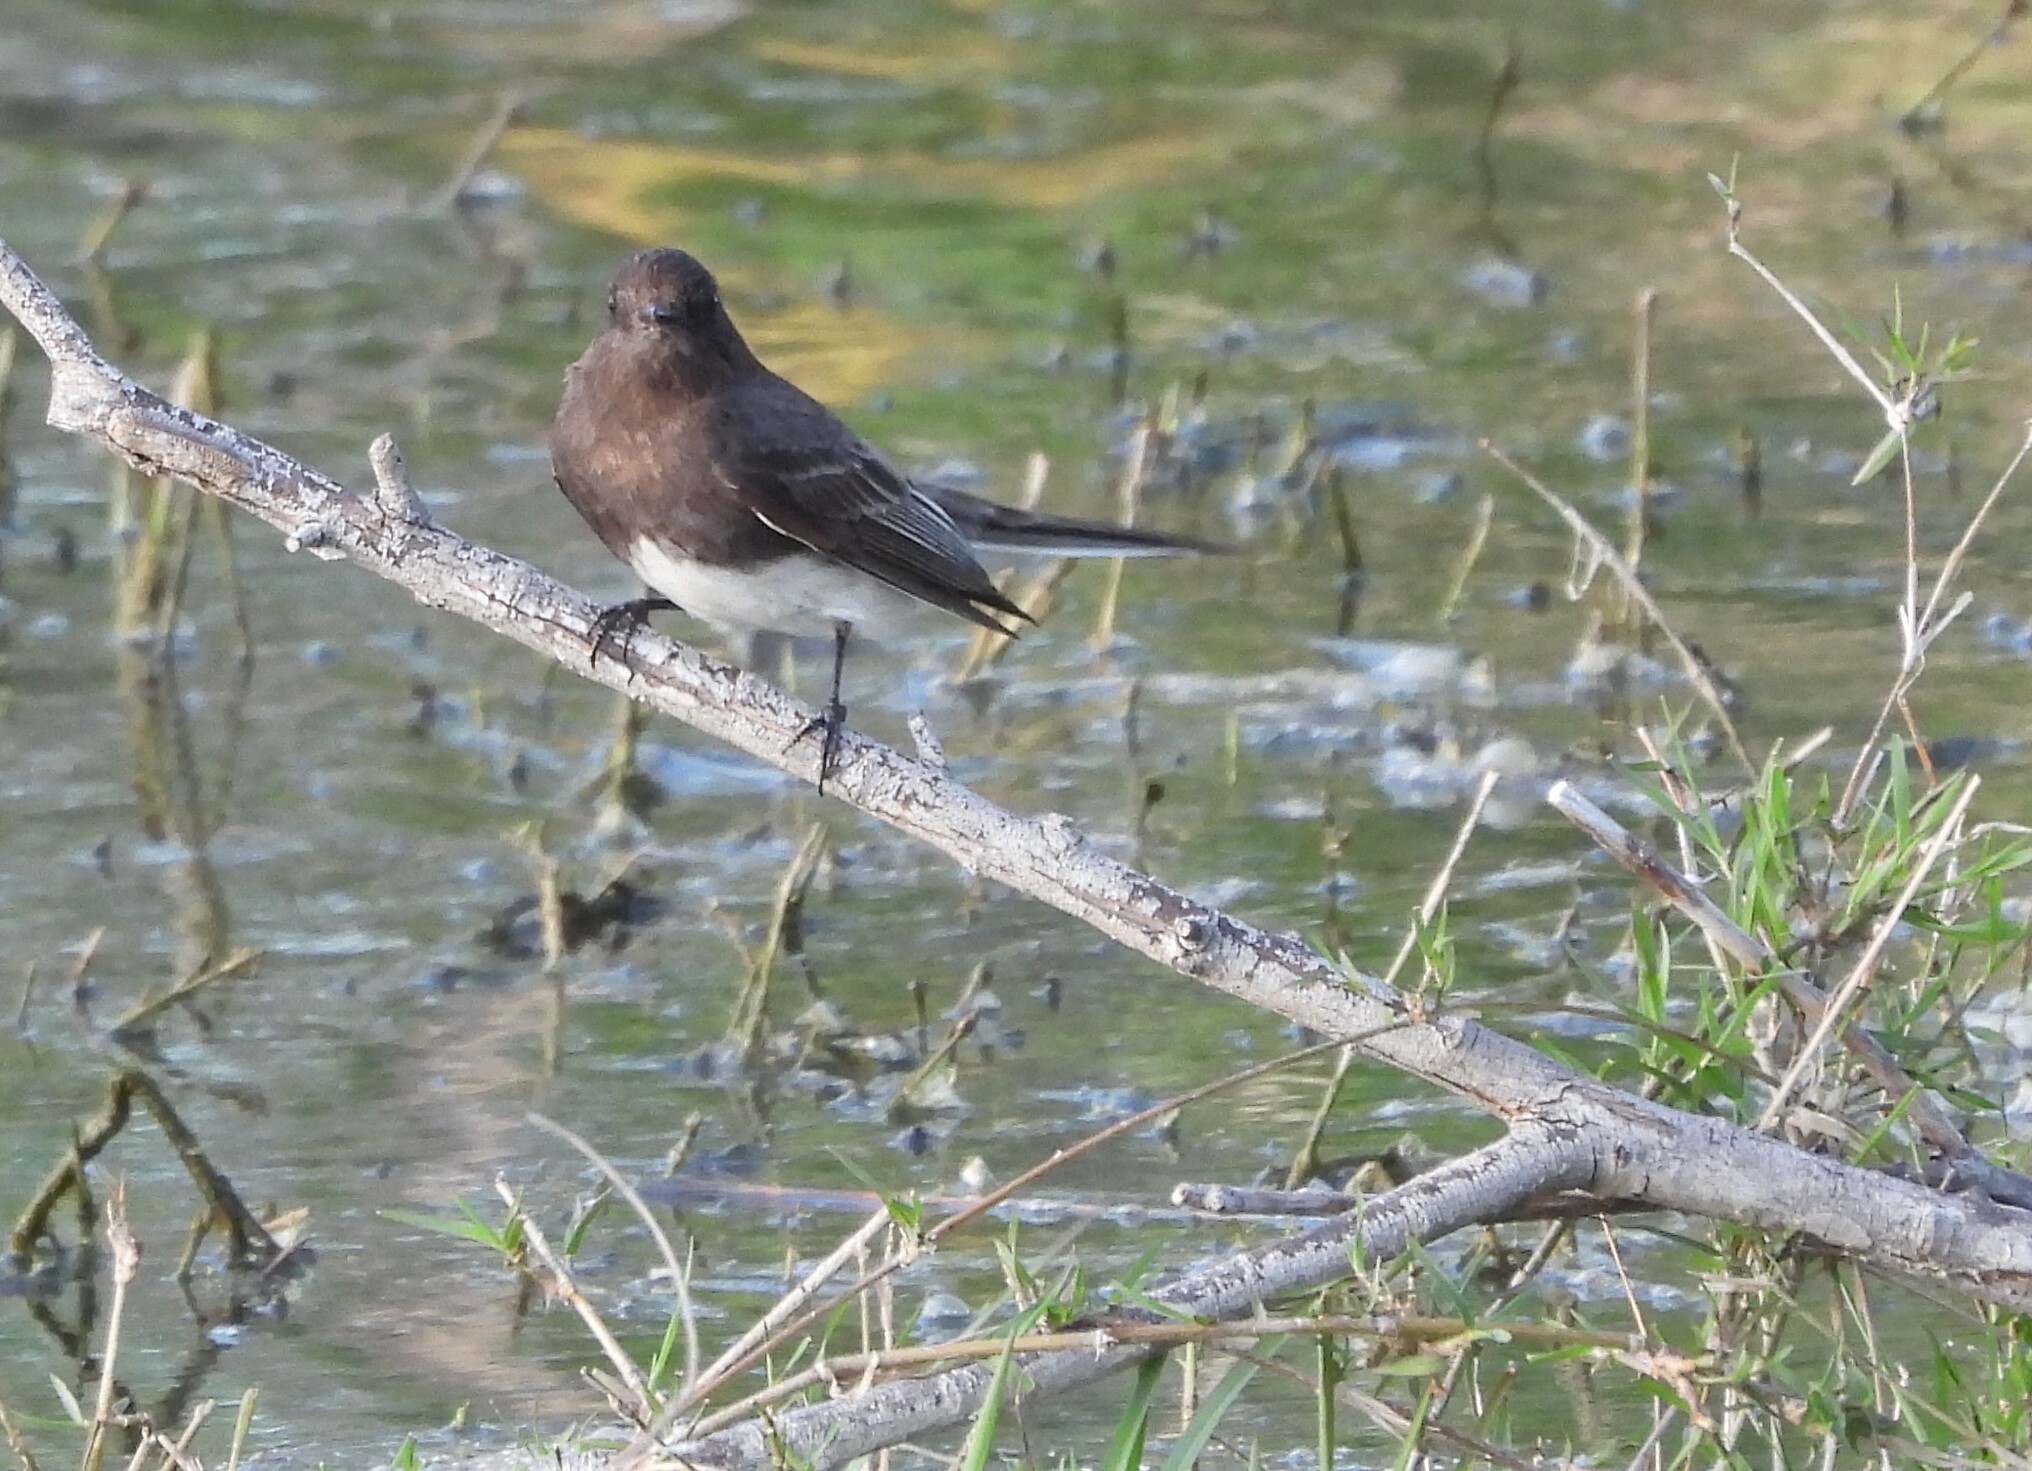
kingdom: Animalia
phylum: Chordata
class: Aves
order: Passeriformes
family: Tyrannidae
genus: Sayornis
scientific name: Sayornis nigricans
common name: Black phoebe
